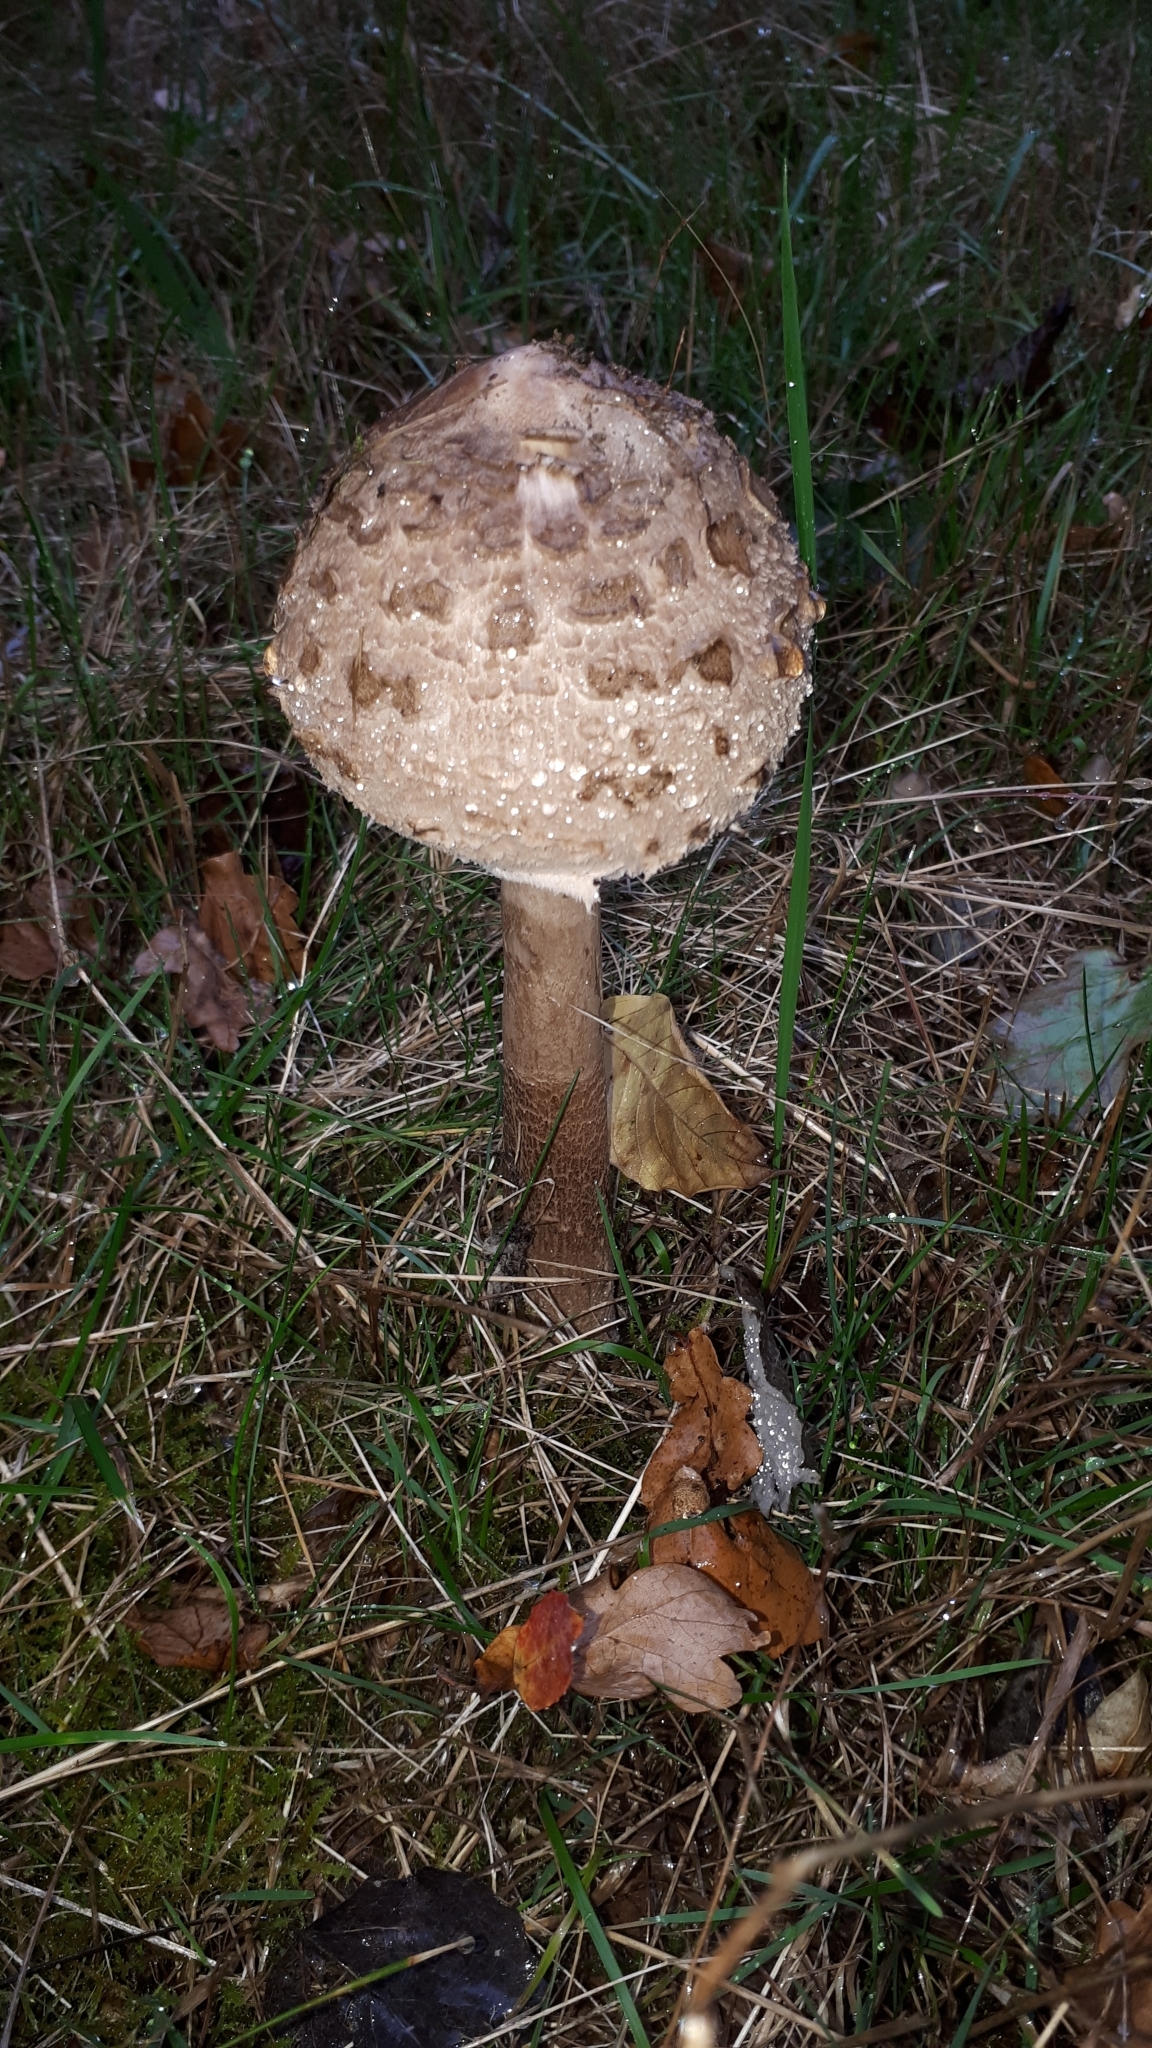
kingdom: Fungi
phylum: Basidiomycota
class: Agaricomycetes
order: Agaricales
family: Agaricaceae
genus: Macrolepiota
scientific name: Macrolepiota procera
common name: Parasol
